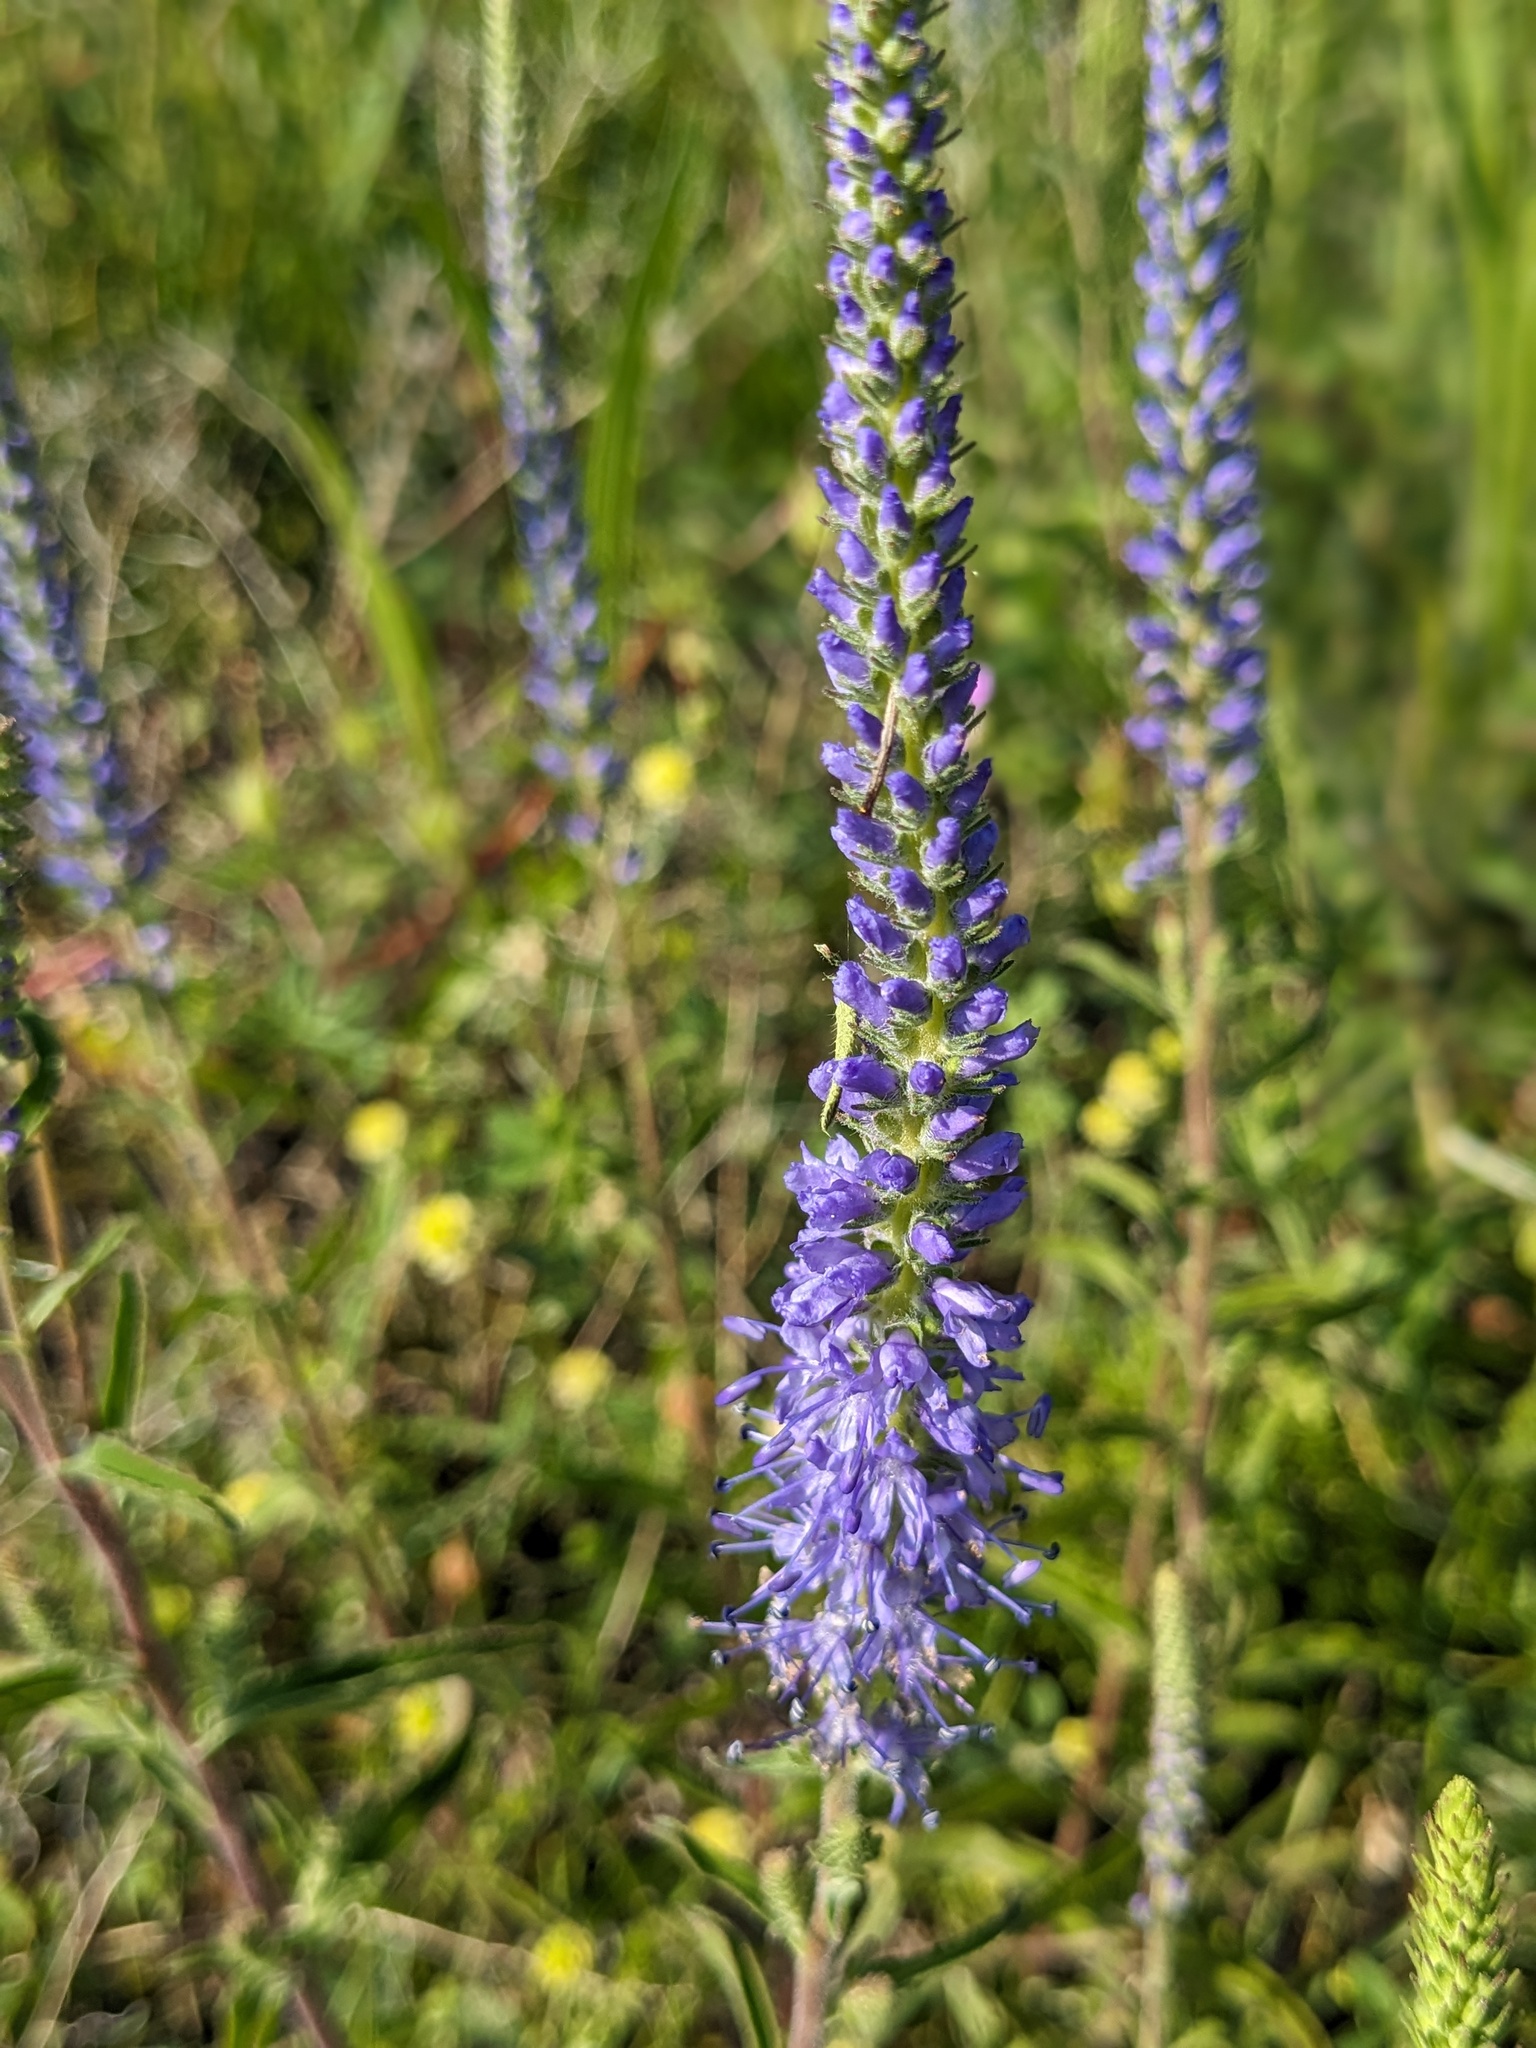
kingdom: Plantae
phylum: Tracheophyta
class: Magnoliopsida
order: Lamiales
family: Plantaginaceae
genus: Veronica
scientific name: Veronica spicata
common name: Spiked speedwell
